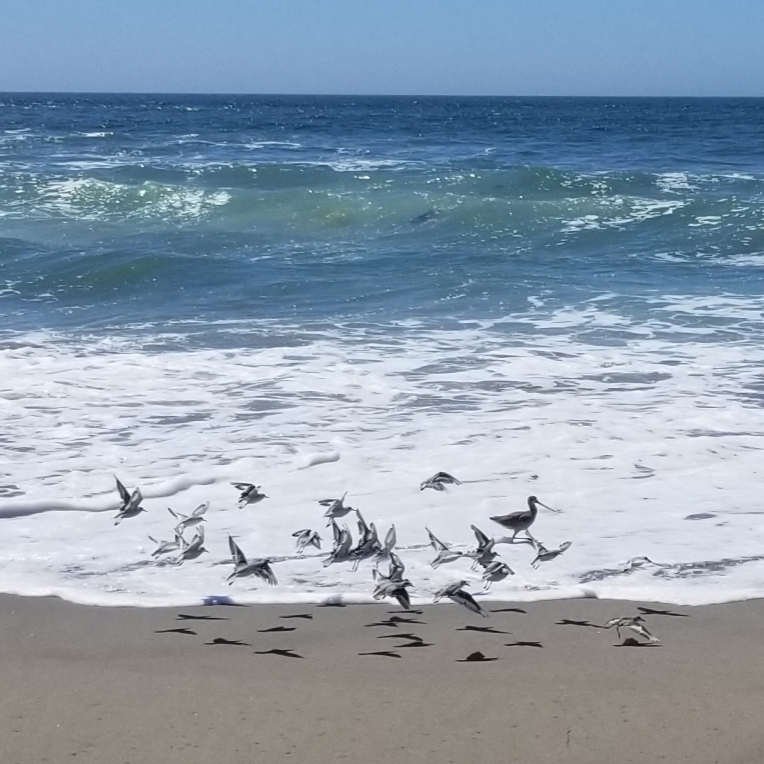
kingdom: Animalia
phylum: Chordata
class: Aves
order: Charadriiformes
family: Scolopacidae
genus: Calidris
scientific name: Calidris alba
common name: Sanderling
